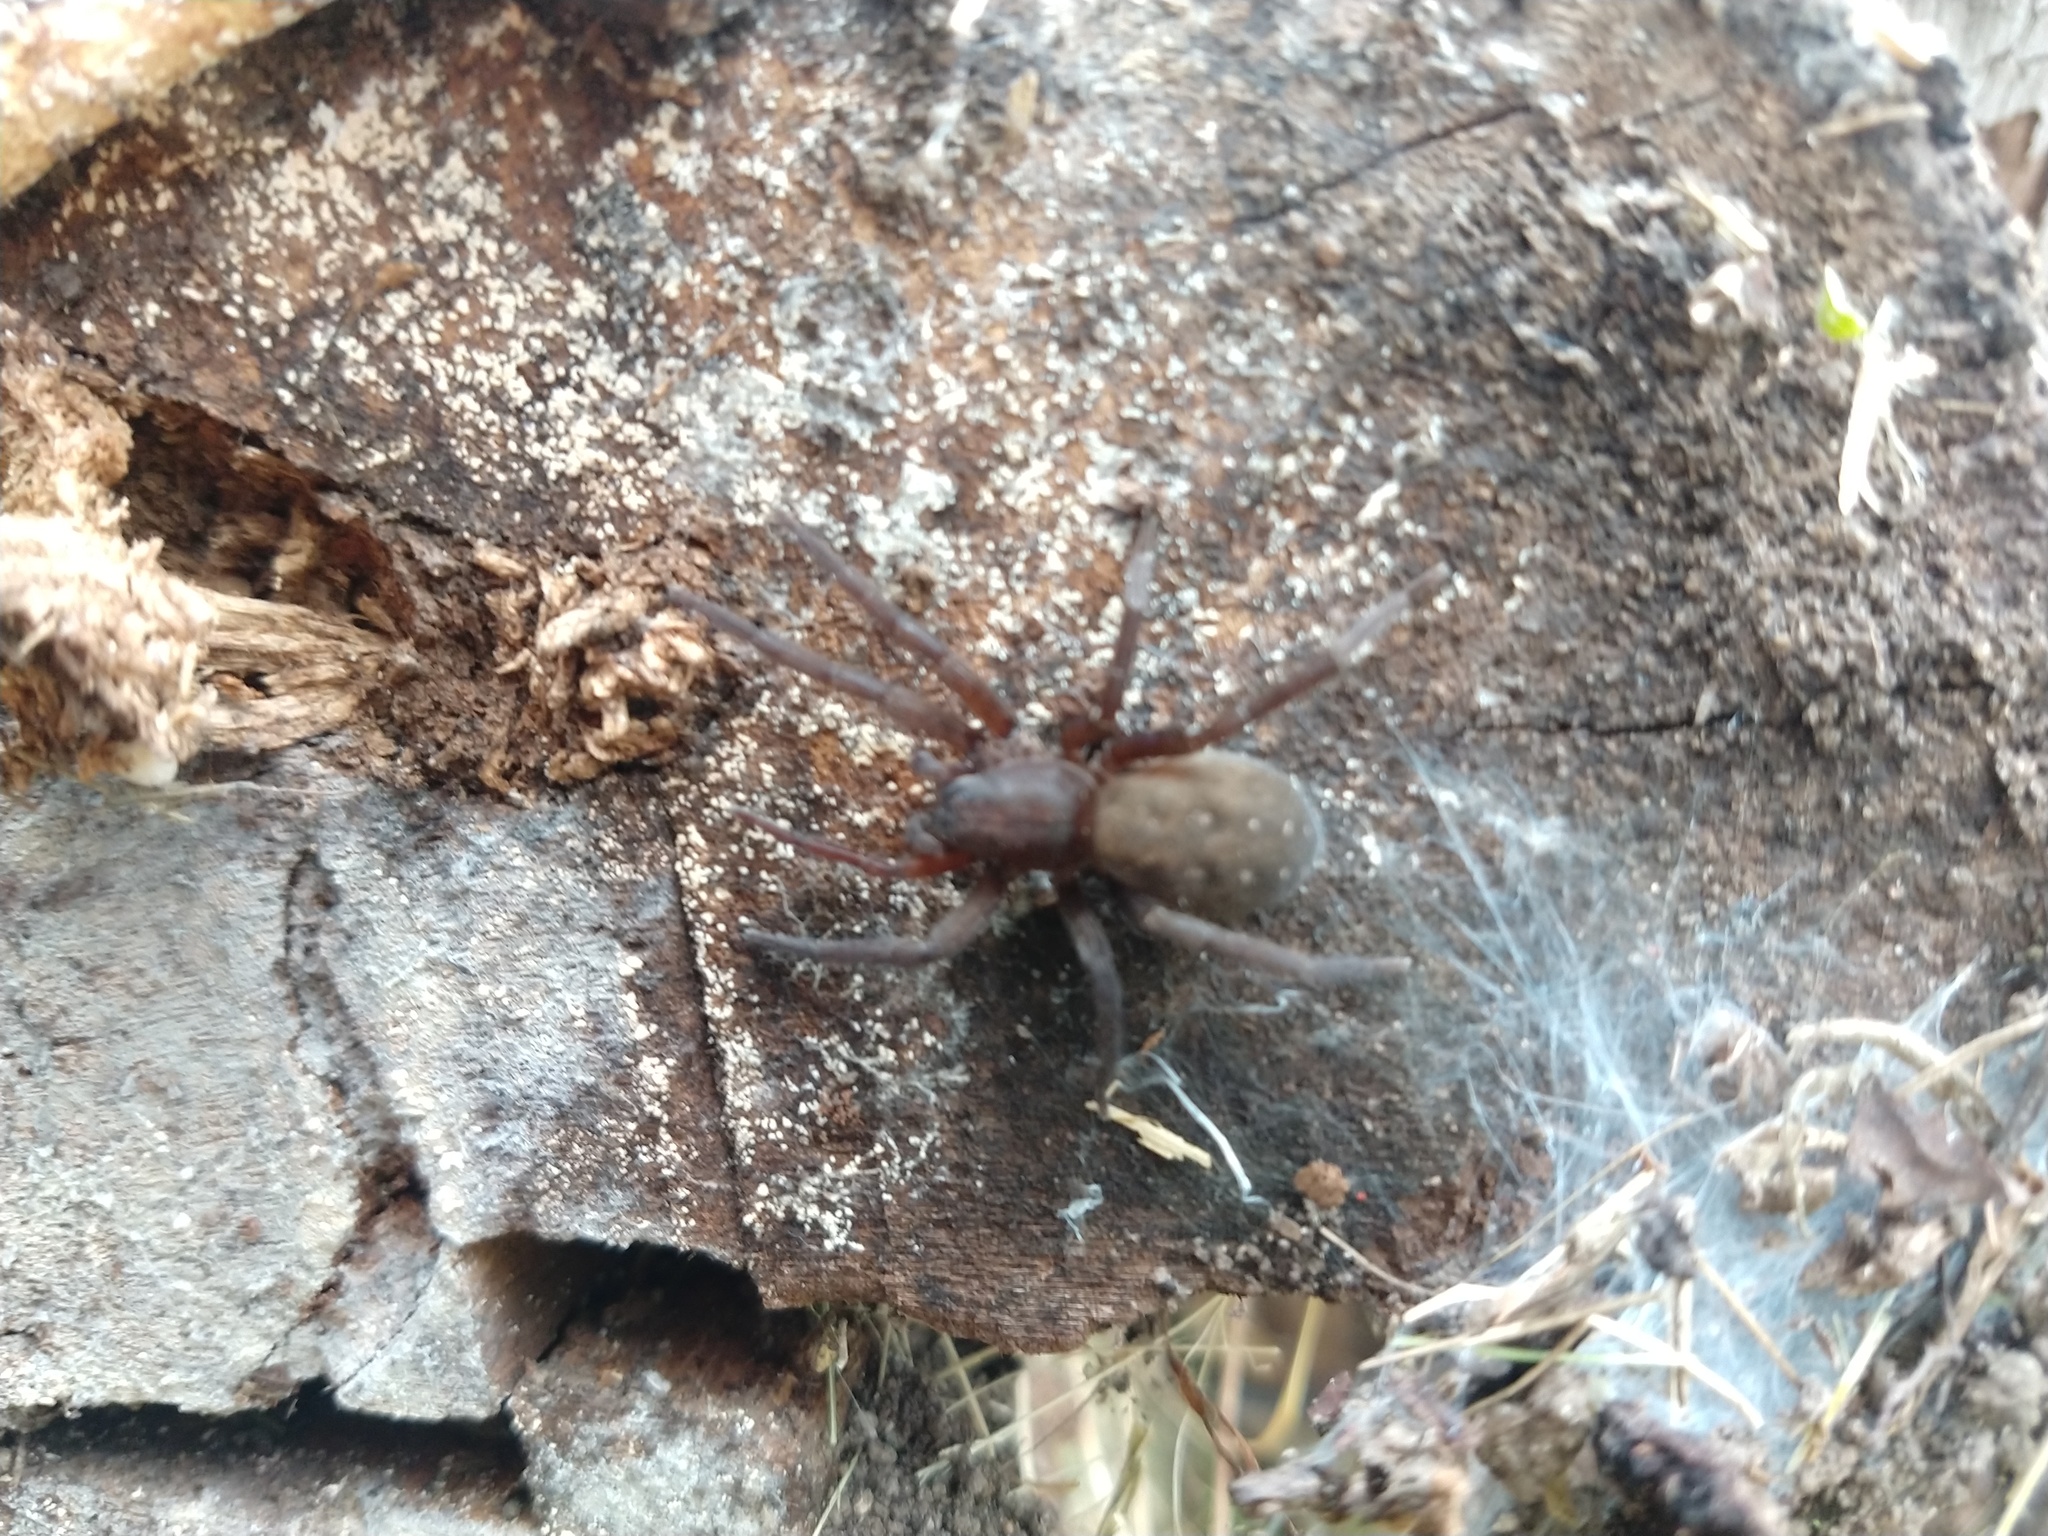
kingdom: Animalia
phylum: Arthropoda
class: Arachnida
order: Araneae
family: Ctenidae
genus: Asthenoctenus
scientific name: Asthenoctenus borellii
